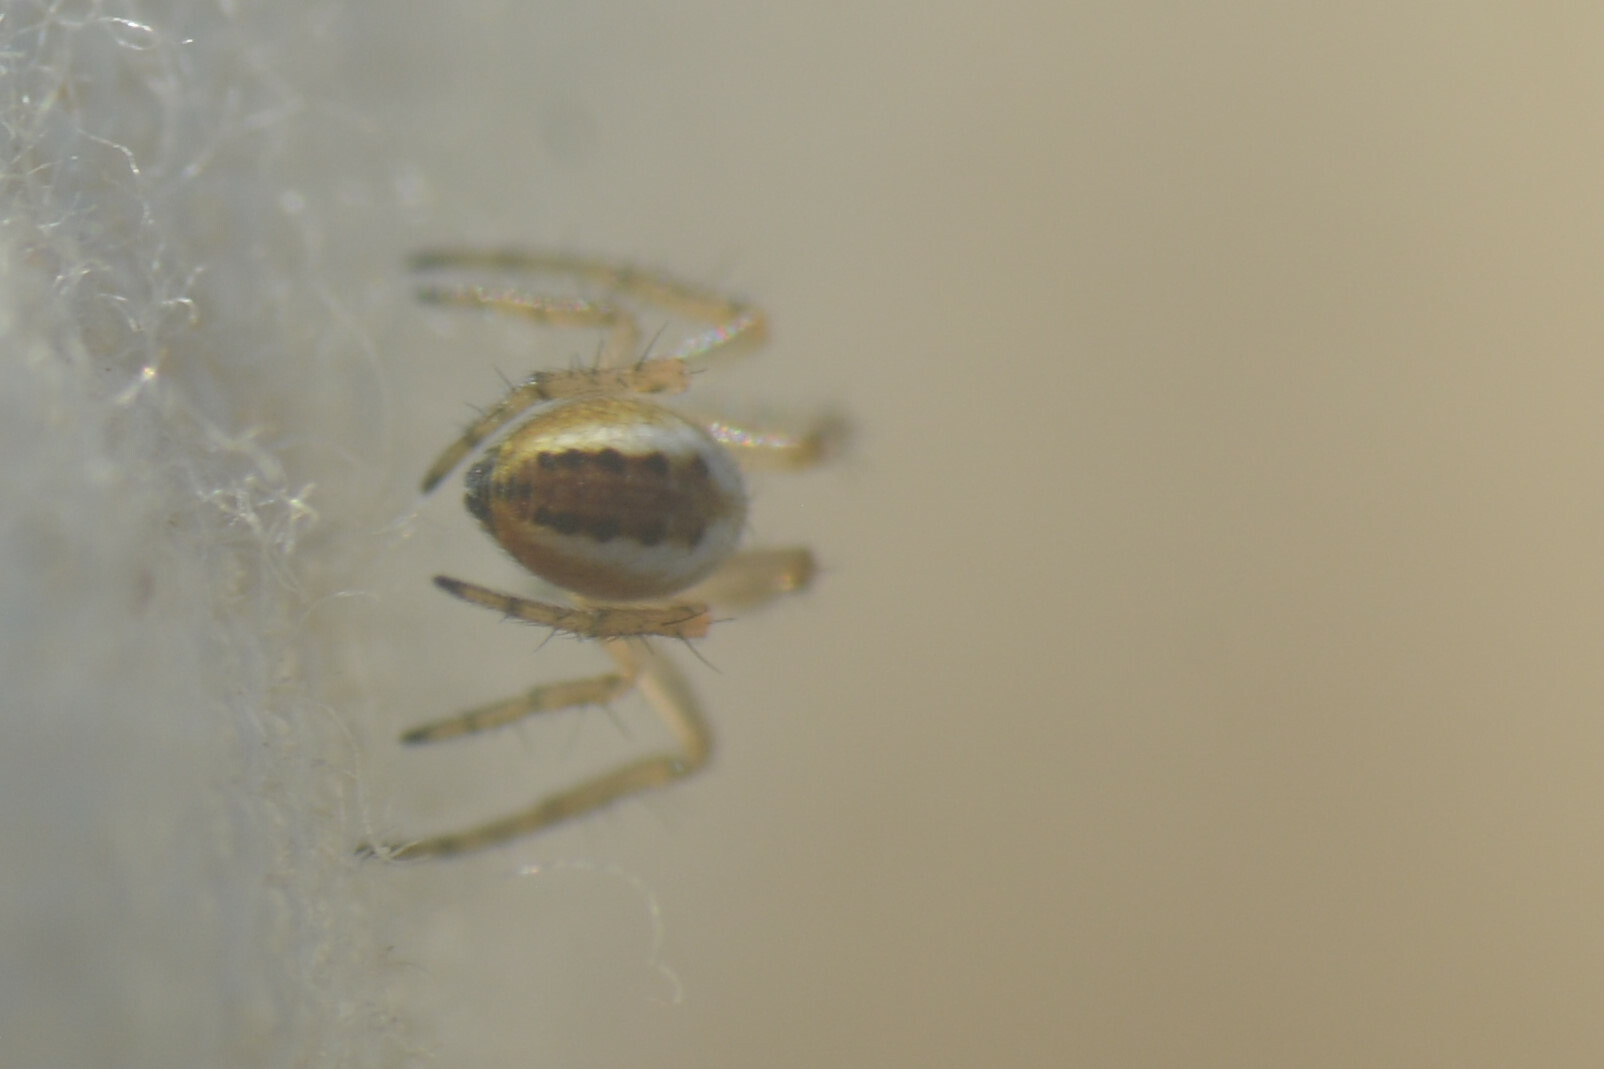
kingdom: Animalia
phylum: Arthropoda
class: Arachnida
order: Araneae
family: Araneidae
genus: Mangora
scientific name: Mangora acalypha
